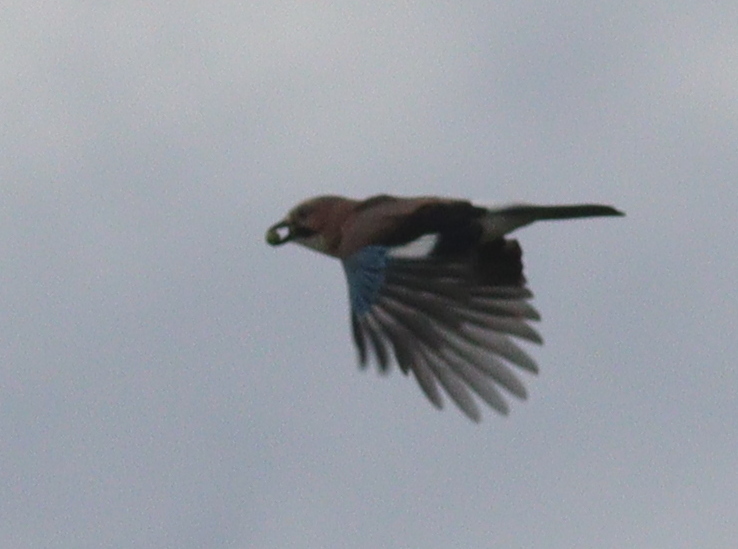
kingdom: Animalia
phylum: Chordata
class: Aves
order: Passeriformes
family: Corvidae
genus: Garrulus
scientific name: Garrulus glandarius
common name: Eurasian jay
